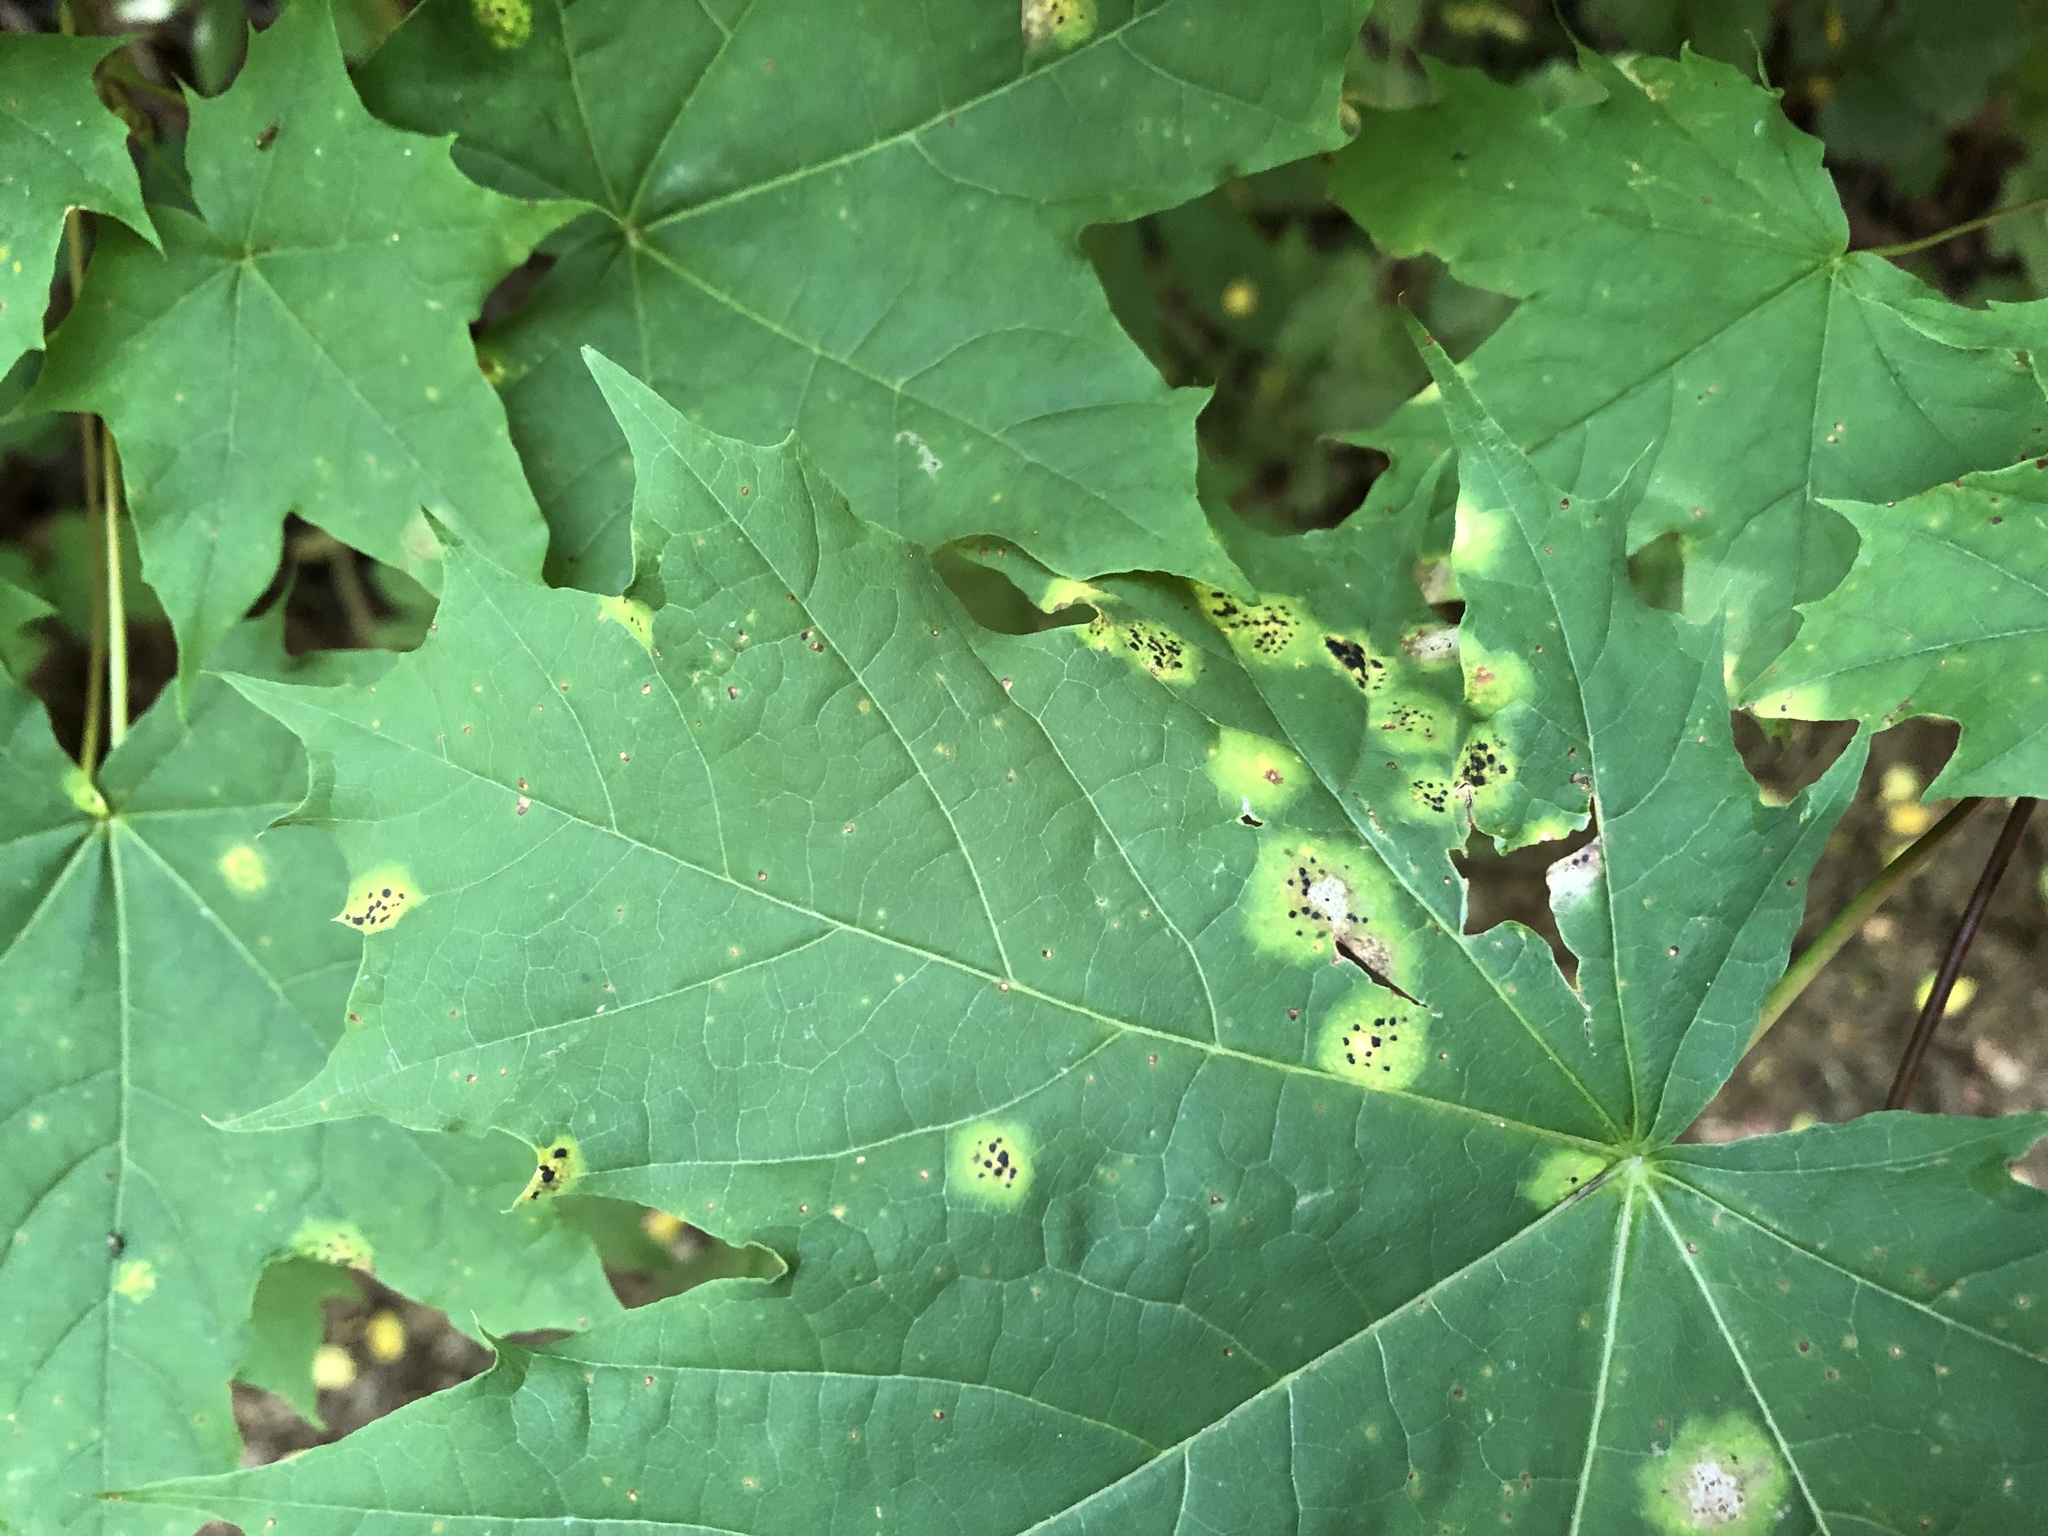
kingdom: Fungi
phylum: Ascomycota
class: Leotiomycetes
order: Rhytismatales
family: Rhytismataceae
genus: Rhytisma
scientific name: Rhytisma acerinum
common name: European tar spot
